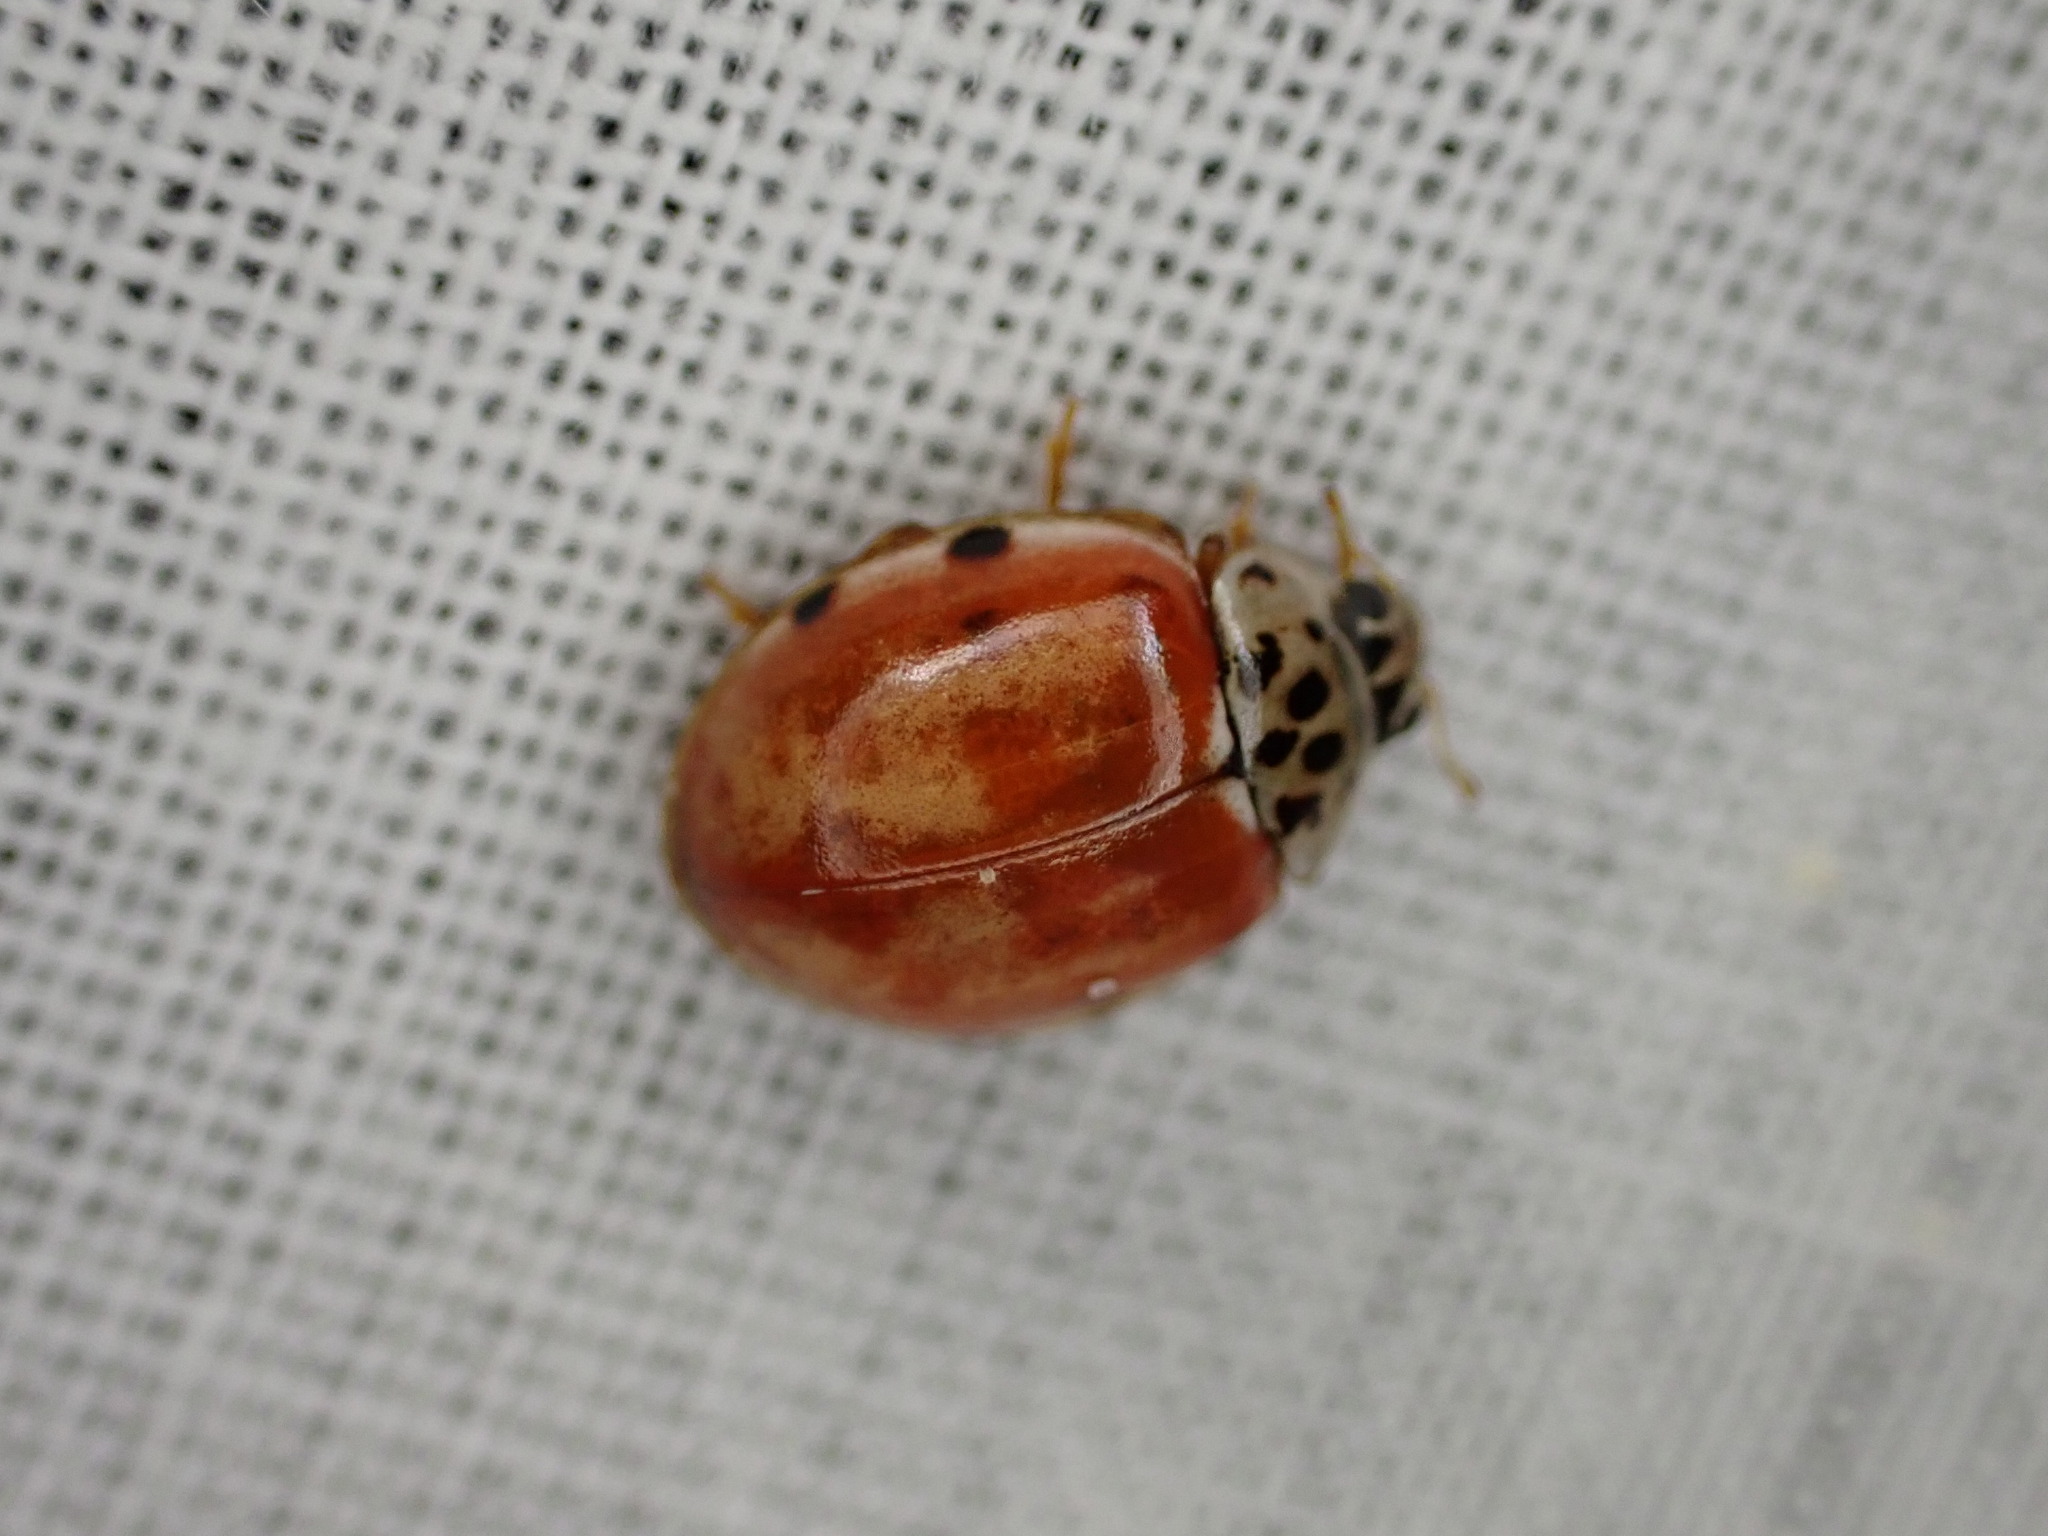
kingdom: Animalia
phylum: Arthropoda
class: Insecta
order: Coleoptera
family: Coccinellidae
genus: Harmonia
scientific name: Harmonia quadripunctata
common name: Cream-streaked ladybird
